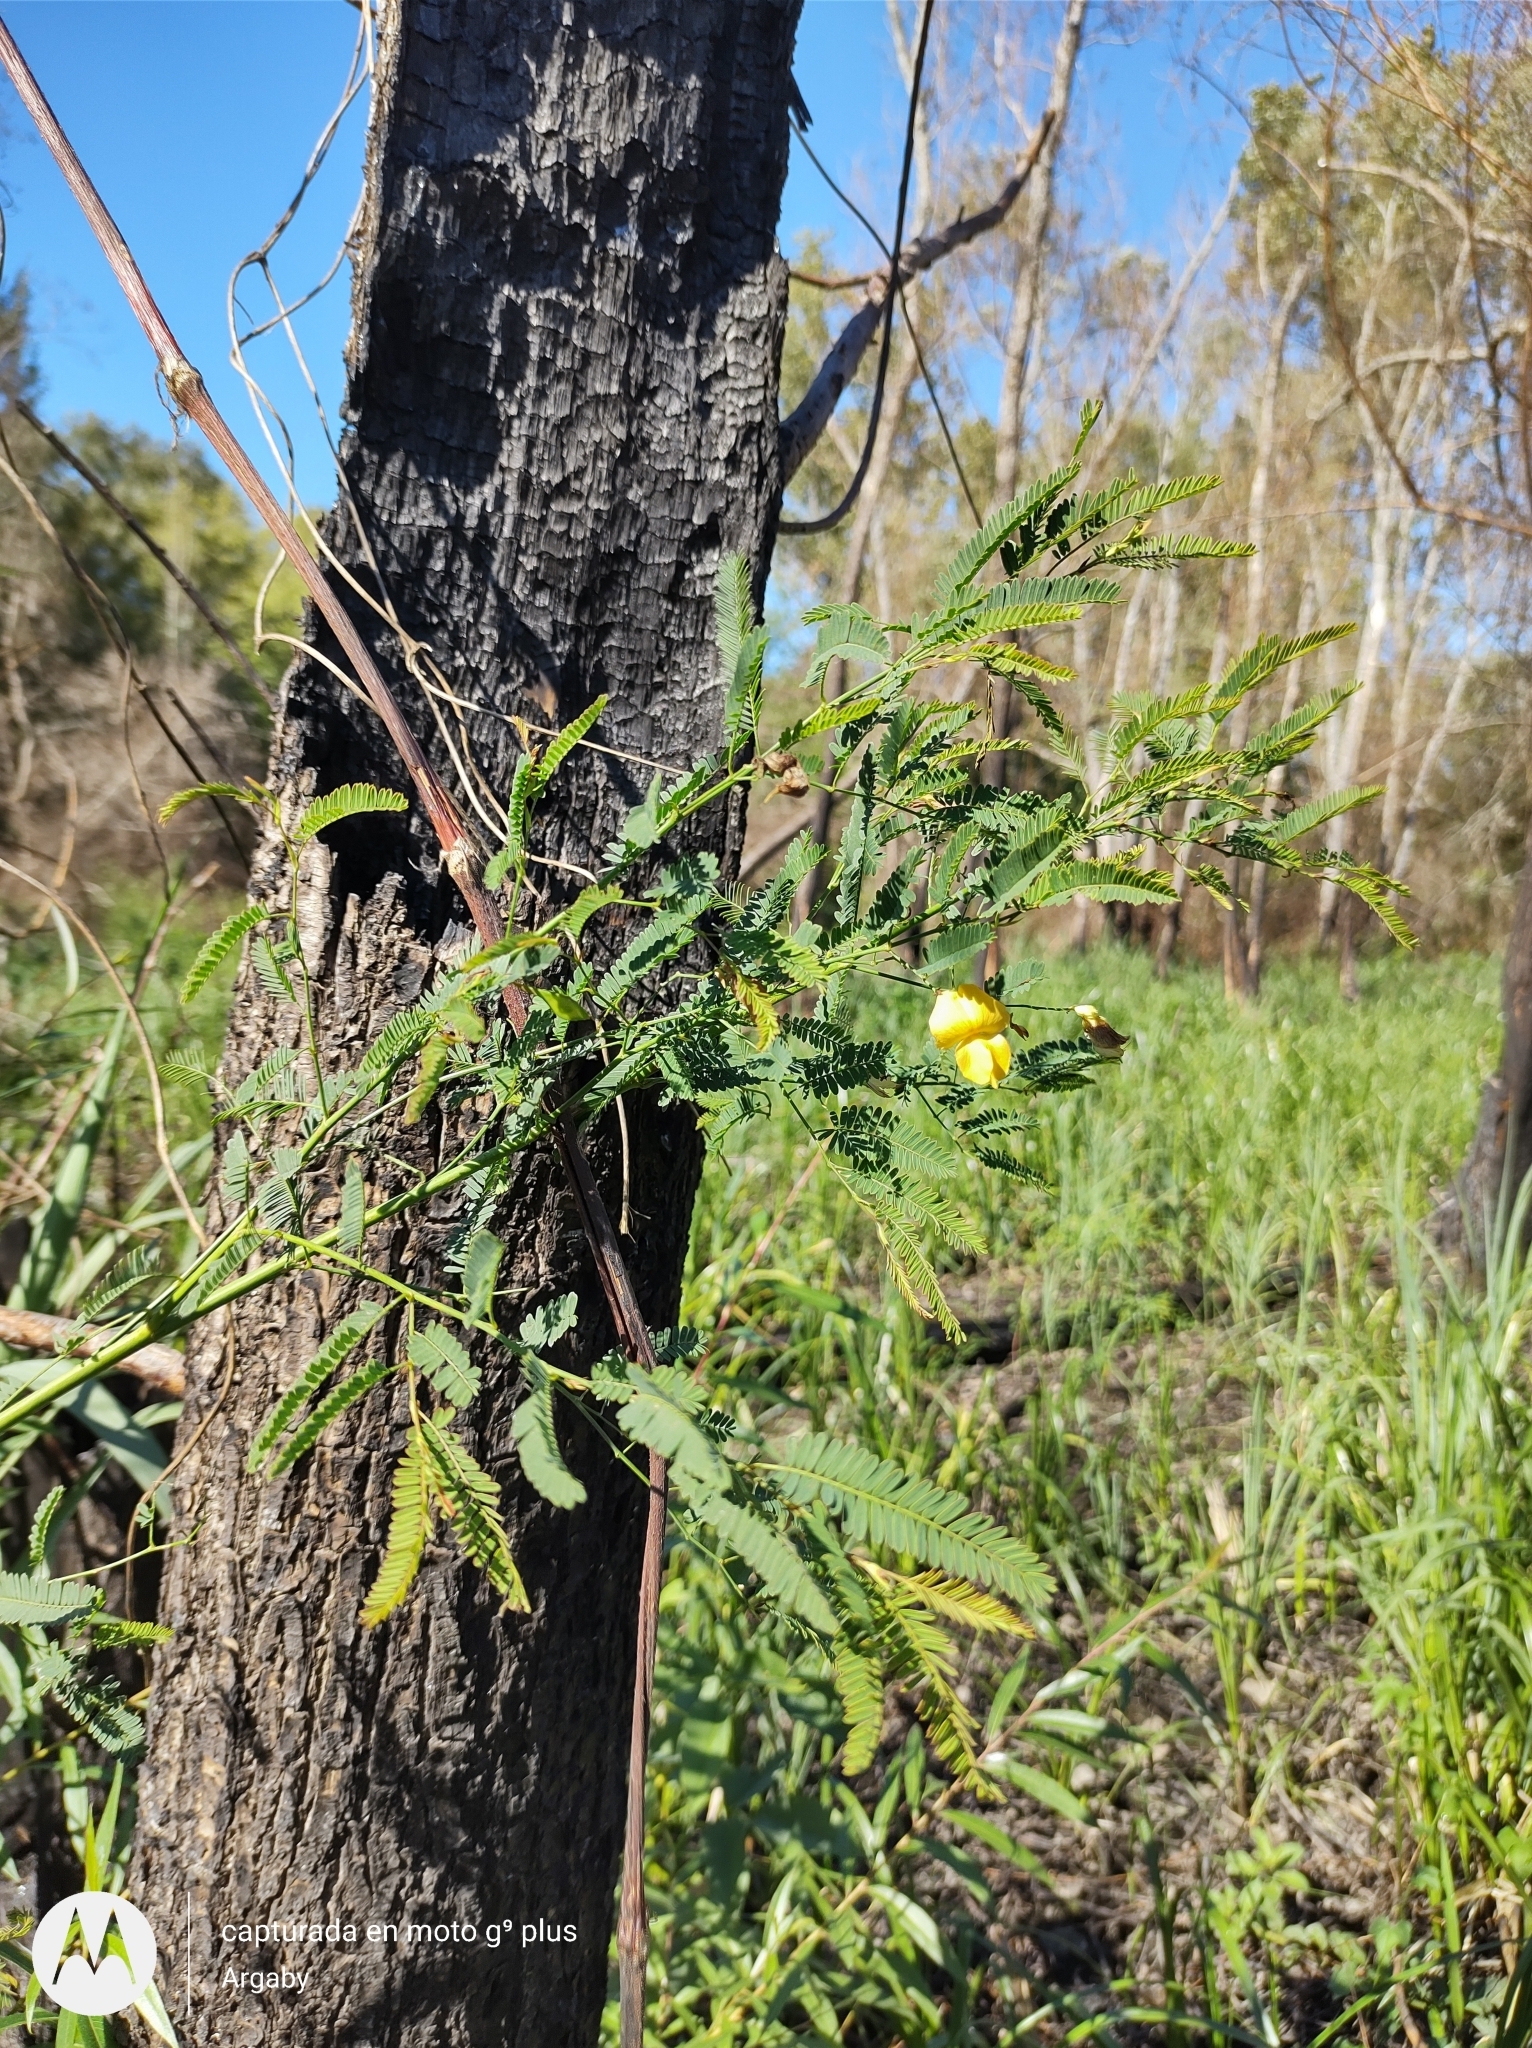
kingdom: Plantae
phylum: Tracheophyta
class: Magnoliopsida
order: Fabales
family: Fabaceae
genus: Aeschynomene
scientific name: Aeschynomene montevidensis
